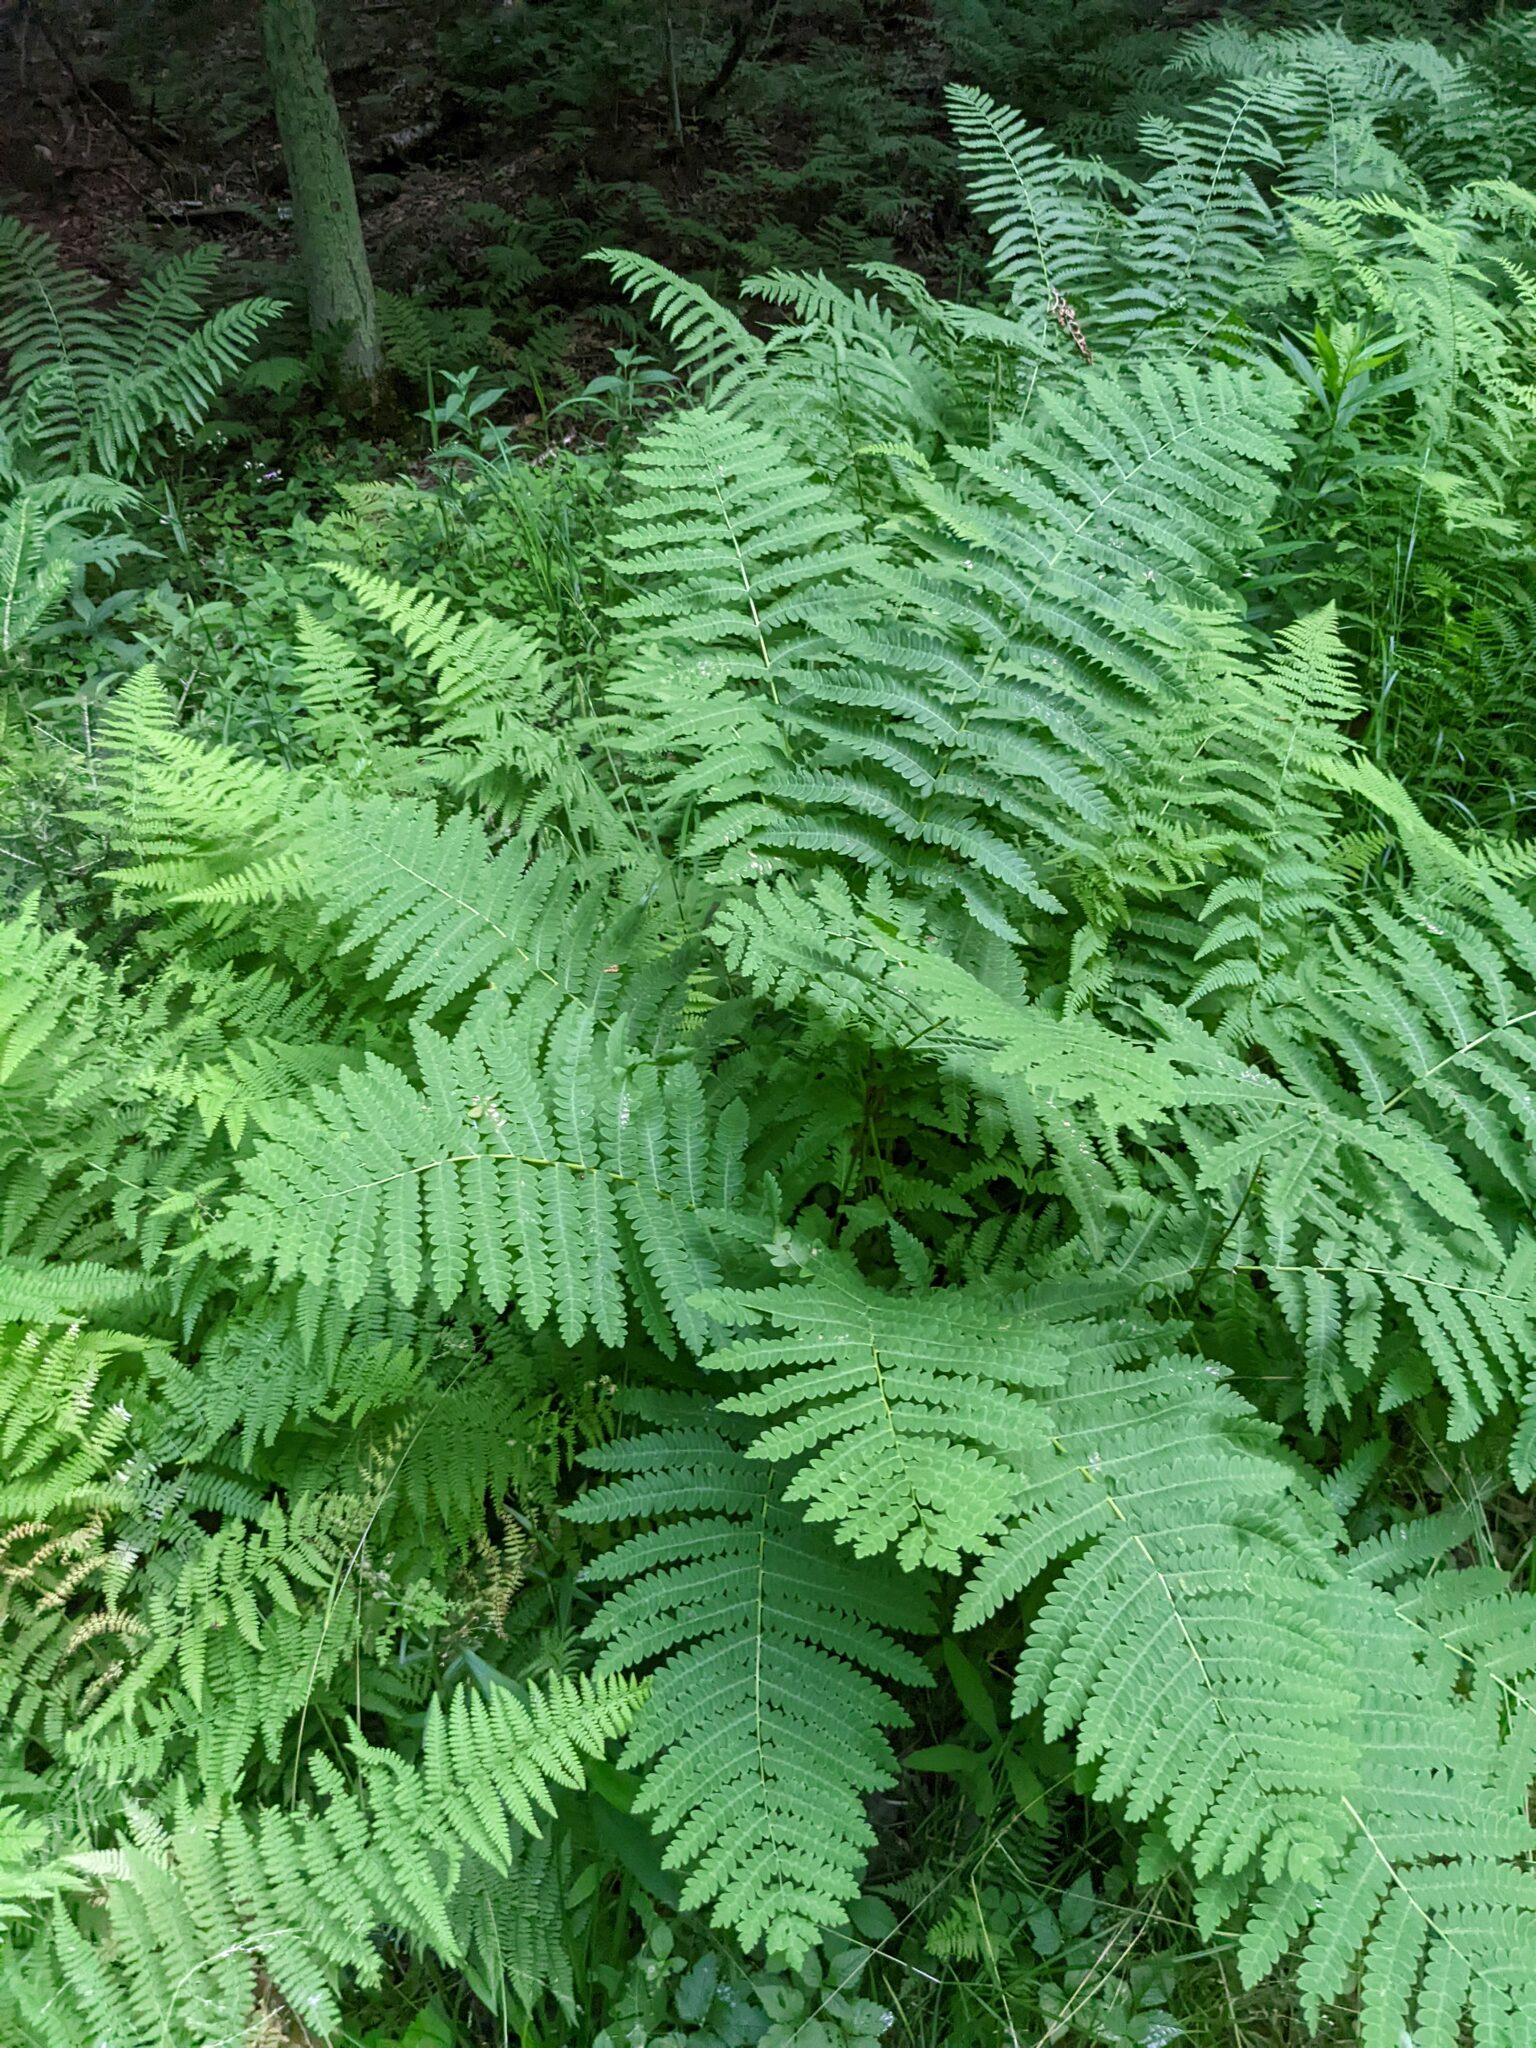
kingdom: Plantae
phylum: Tracheophyta
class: Polypodiopsida
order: Osmundales
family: Osmundaceae
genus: Claytosmunda
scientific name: Claytosmunda claytoniana
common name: Clayton's fern
